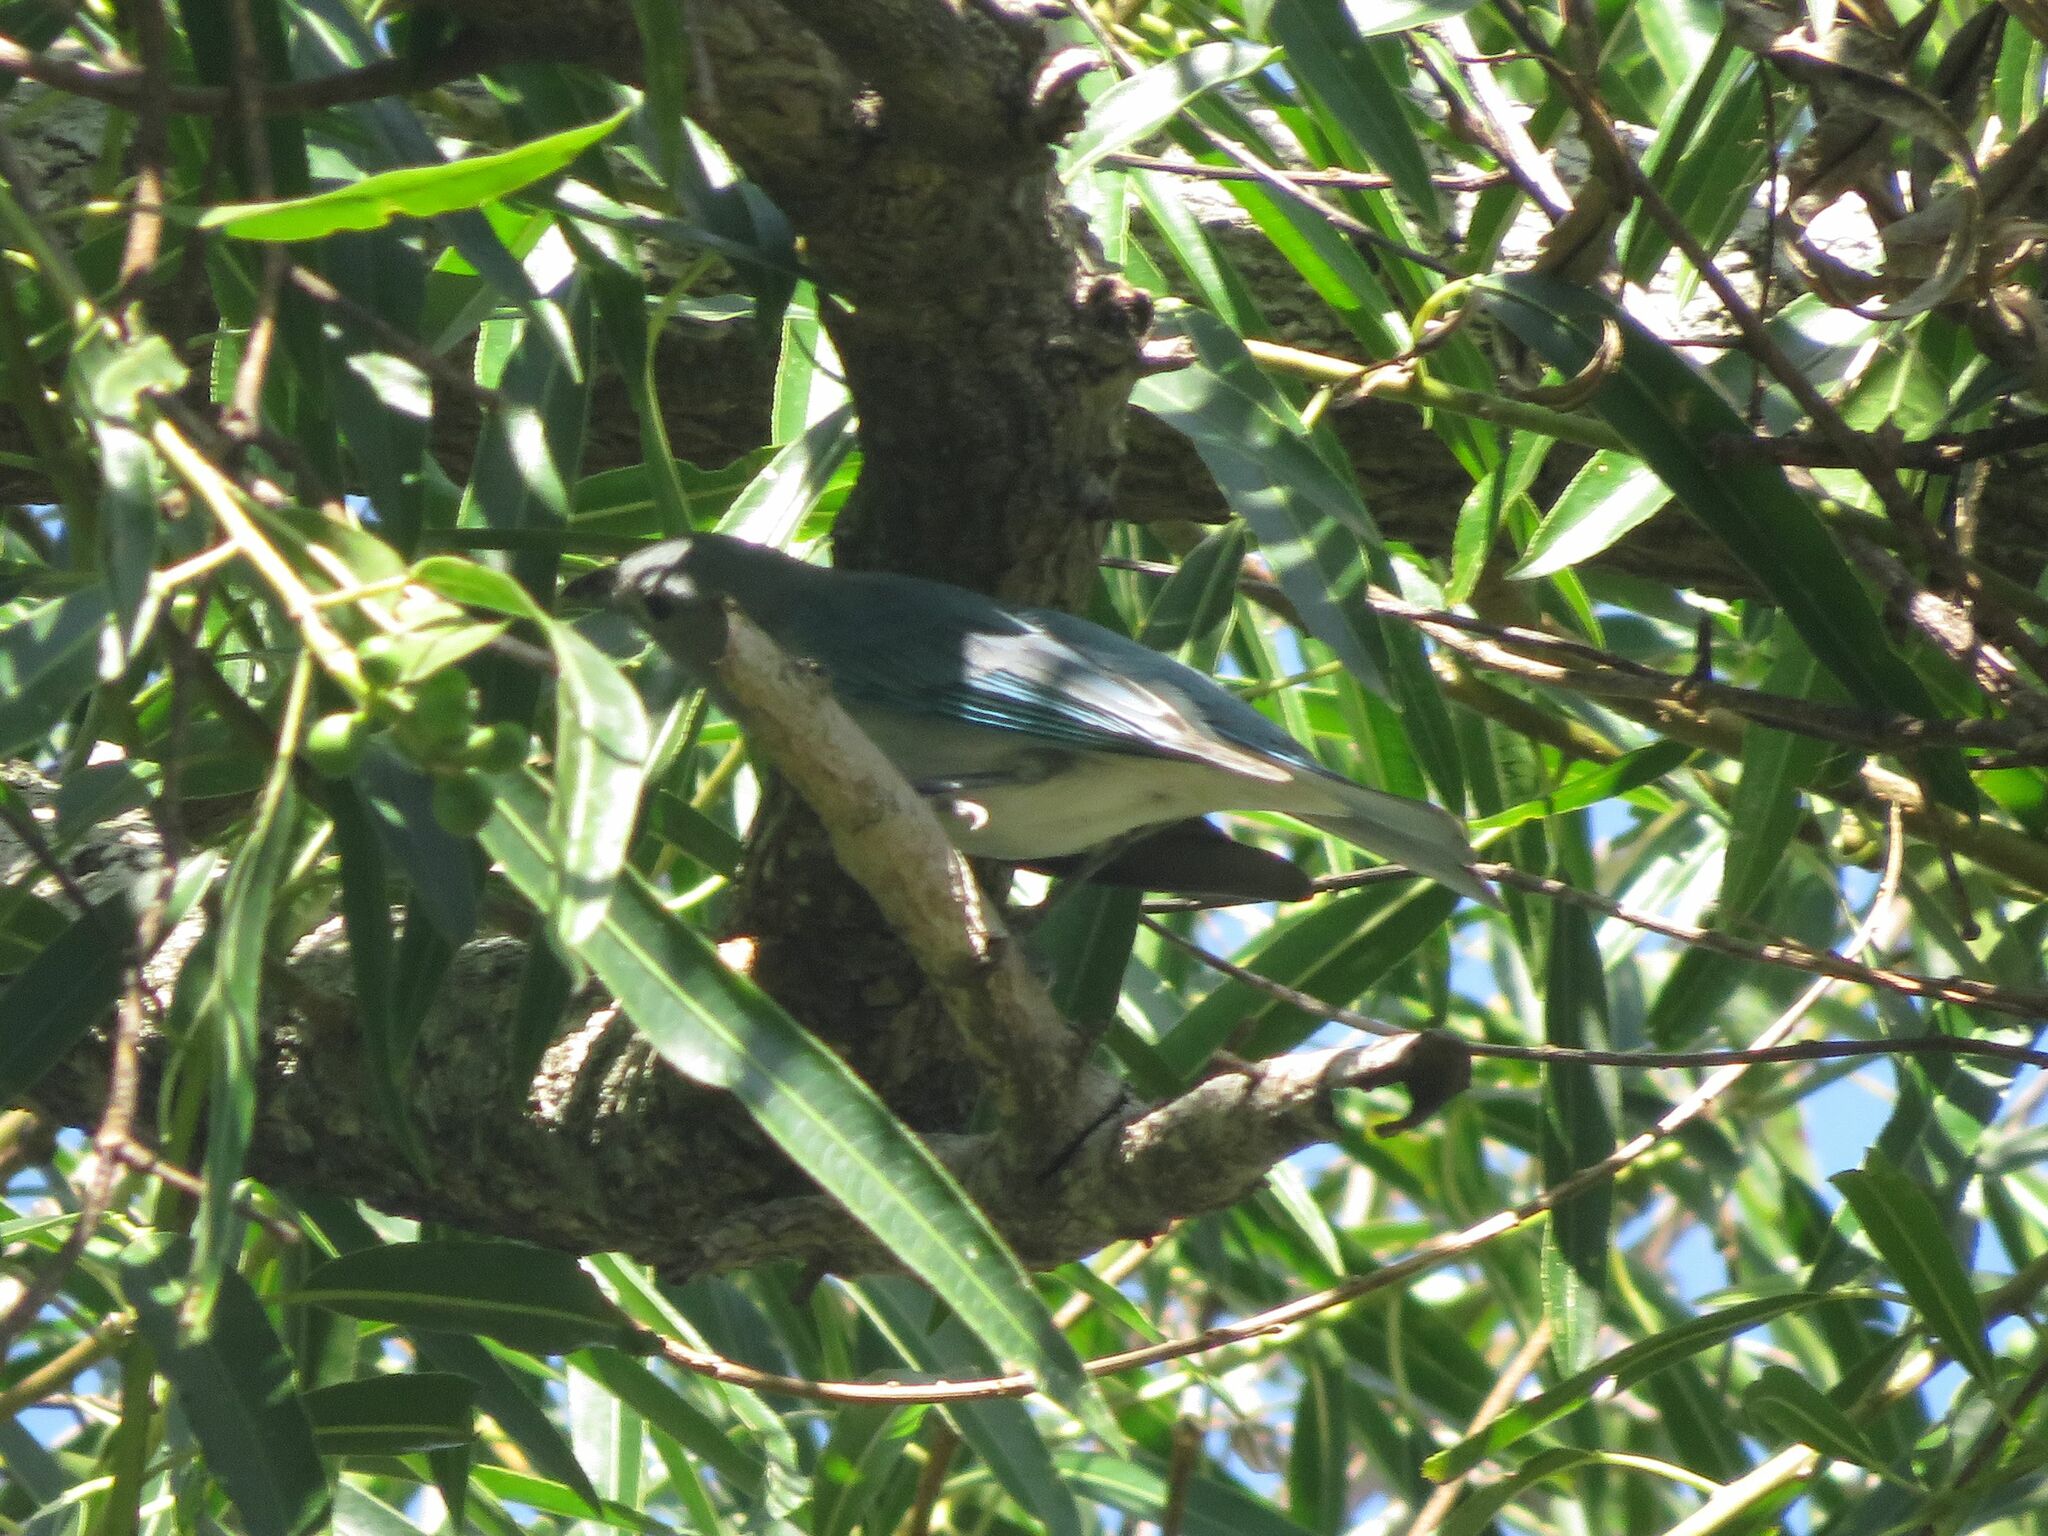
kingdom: Animalia
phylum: Chordata
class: Aves
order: Passeriformes
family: Thraupidae
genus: Thraupis
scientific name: Thraupis sayaca
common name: Sayaca tanager
